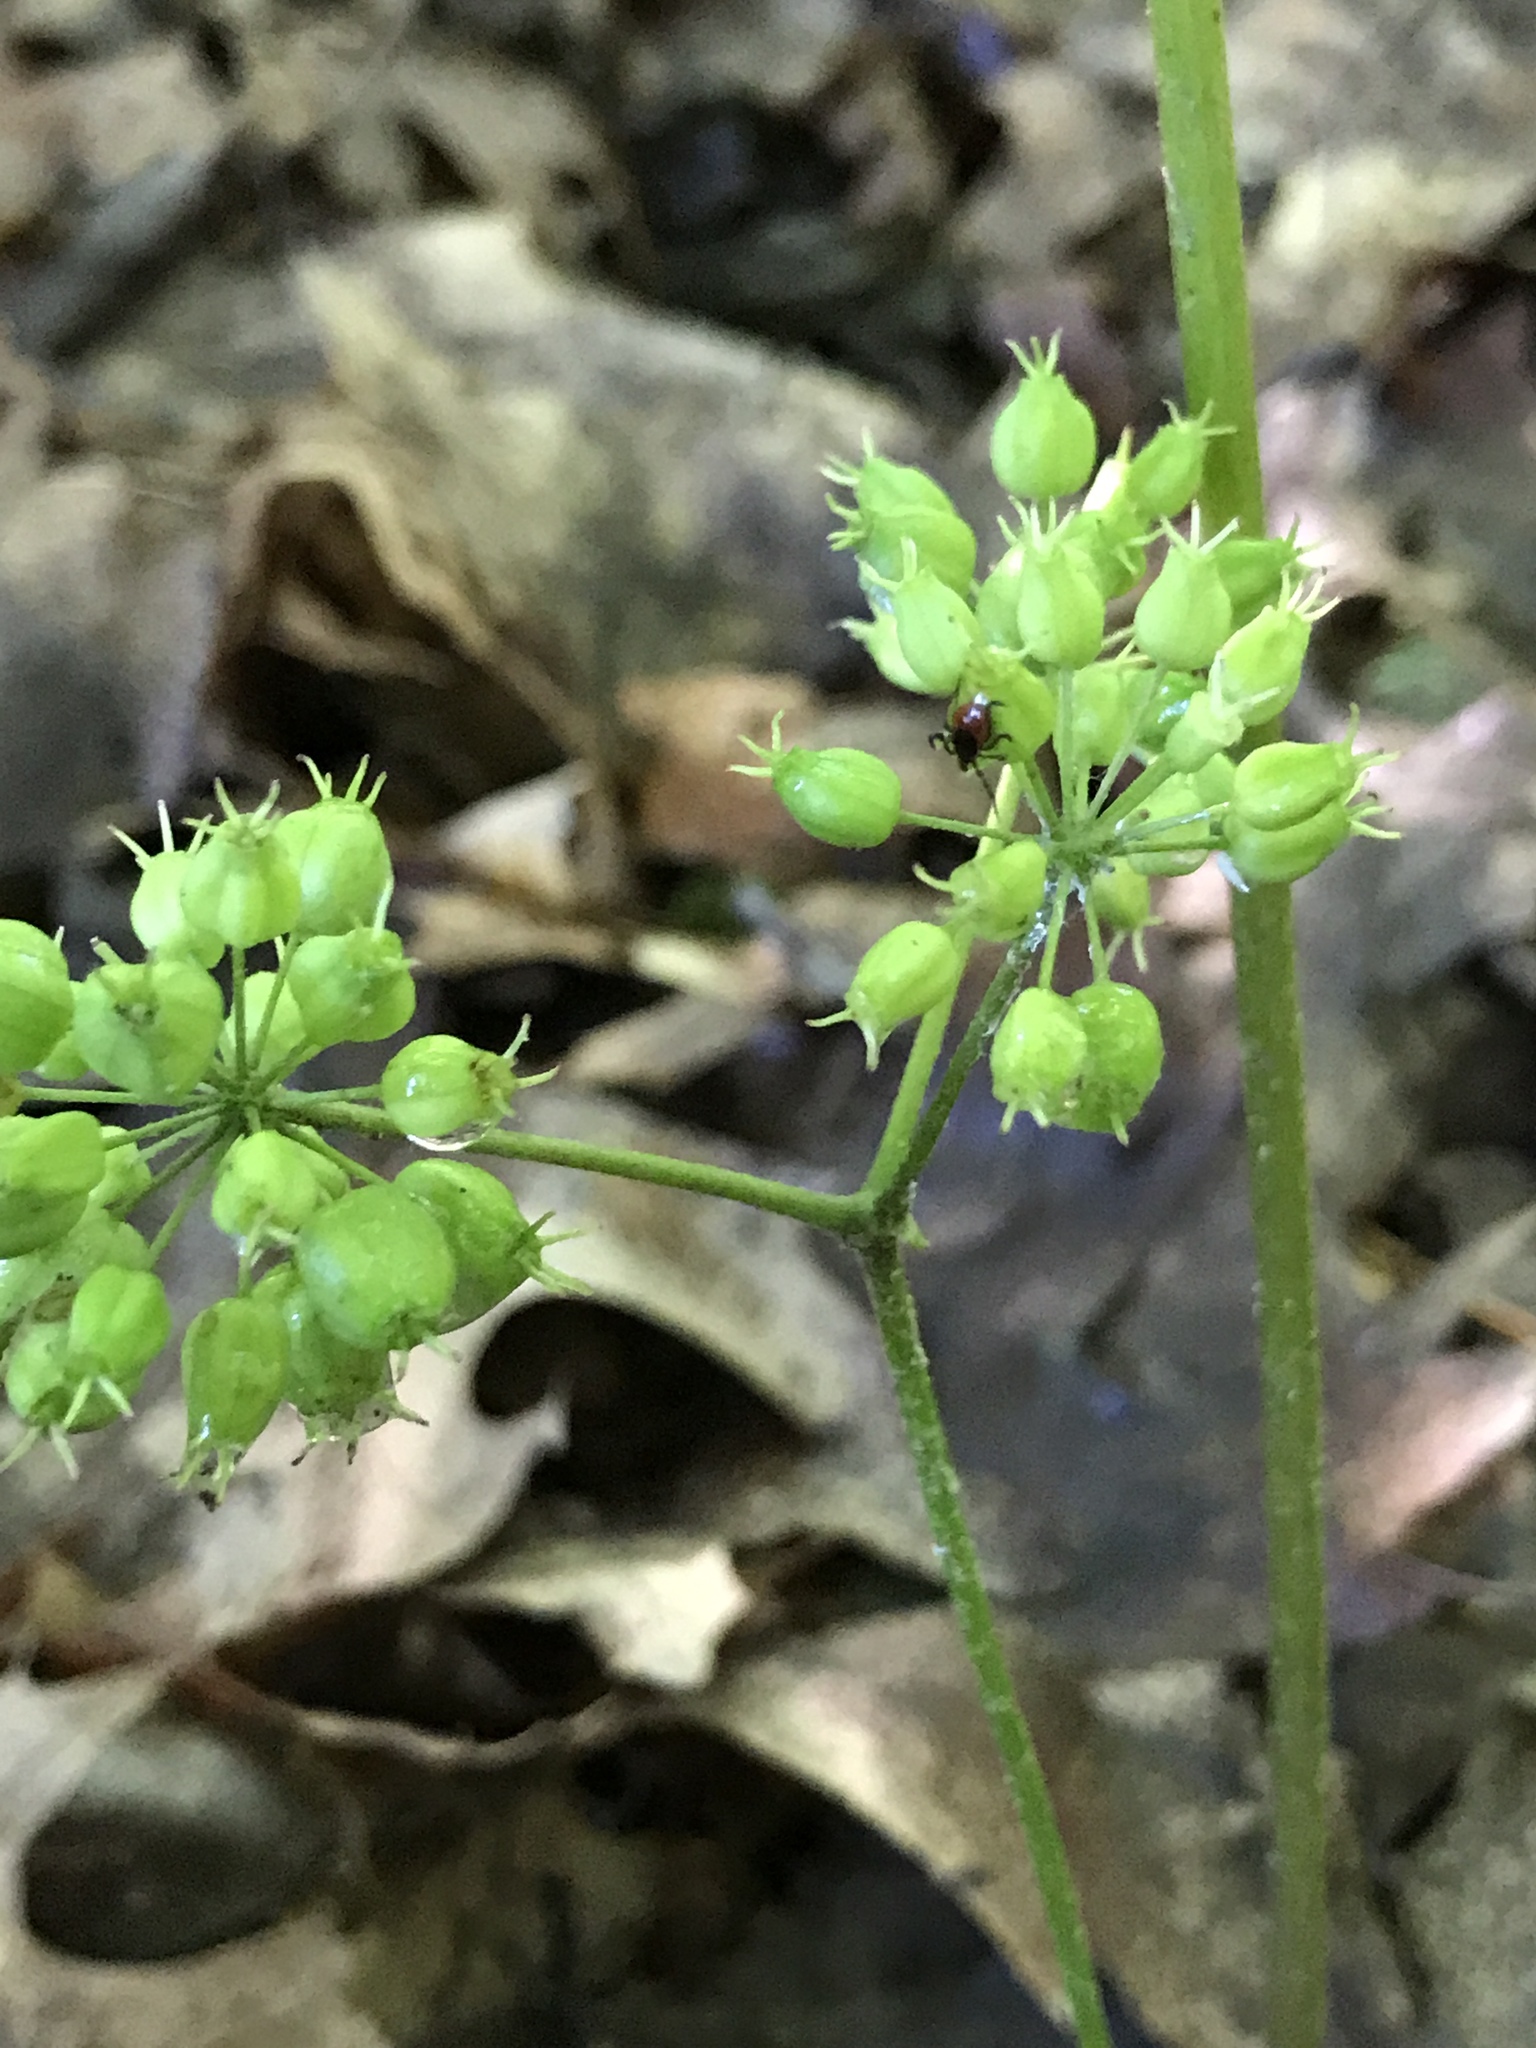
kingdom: Plantae
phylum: Tracheophyta
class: Magnoliopsida
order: Apiales
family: Araliaceae
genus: Aralia
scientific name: Aralia nudicaulis
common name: Wild sarsaparilla
